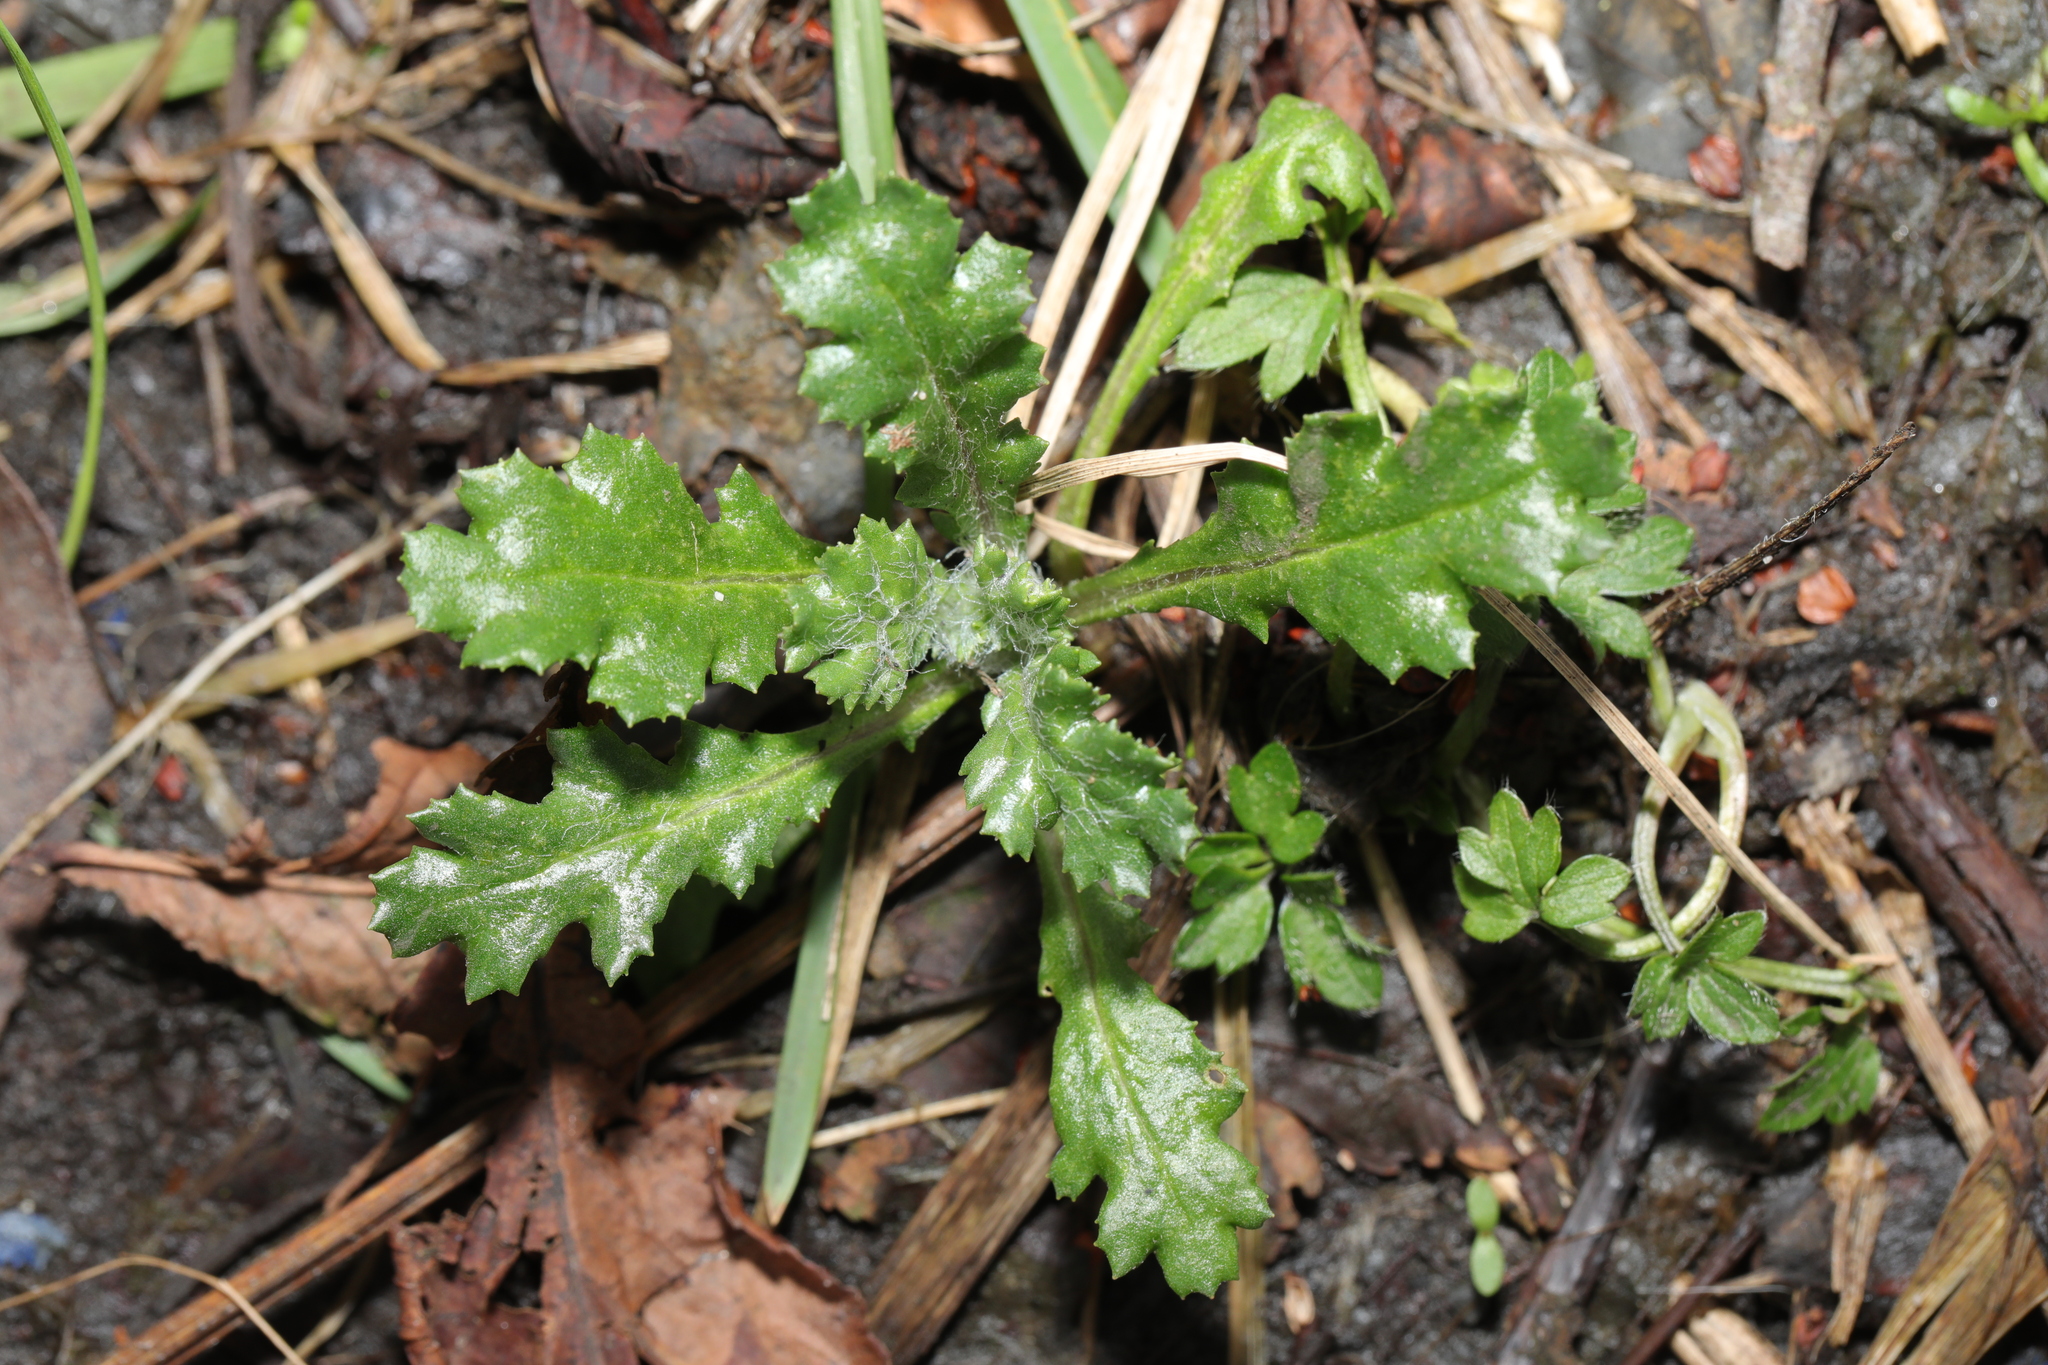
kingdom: Plantae
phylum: Tracheophyta
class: Magnoliopsida
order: Asterales
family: Asteraceae
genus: Senecio
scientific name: Senecio vulgaris
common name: Old-man-in-the-spring
